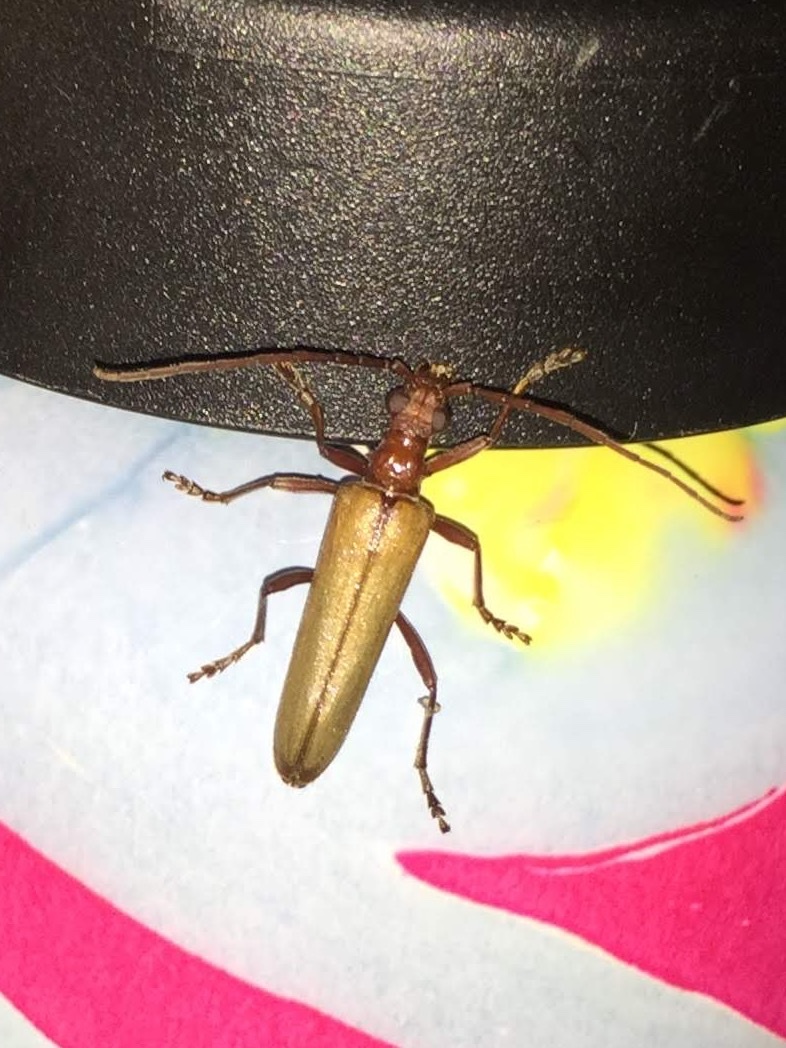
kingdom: Animalia
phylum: Arthropoda
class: Insecta
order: Coleoptera
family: Cerambycidae
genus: Centrodera
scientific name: Centrodera decolorata
